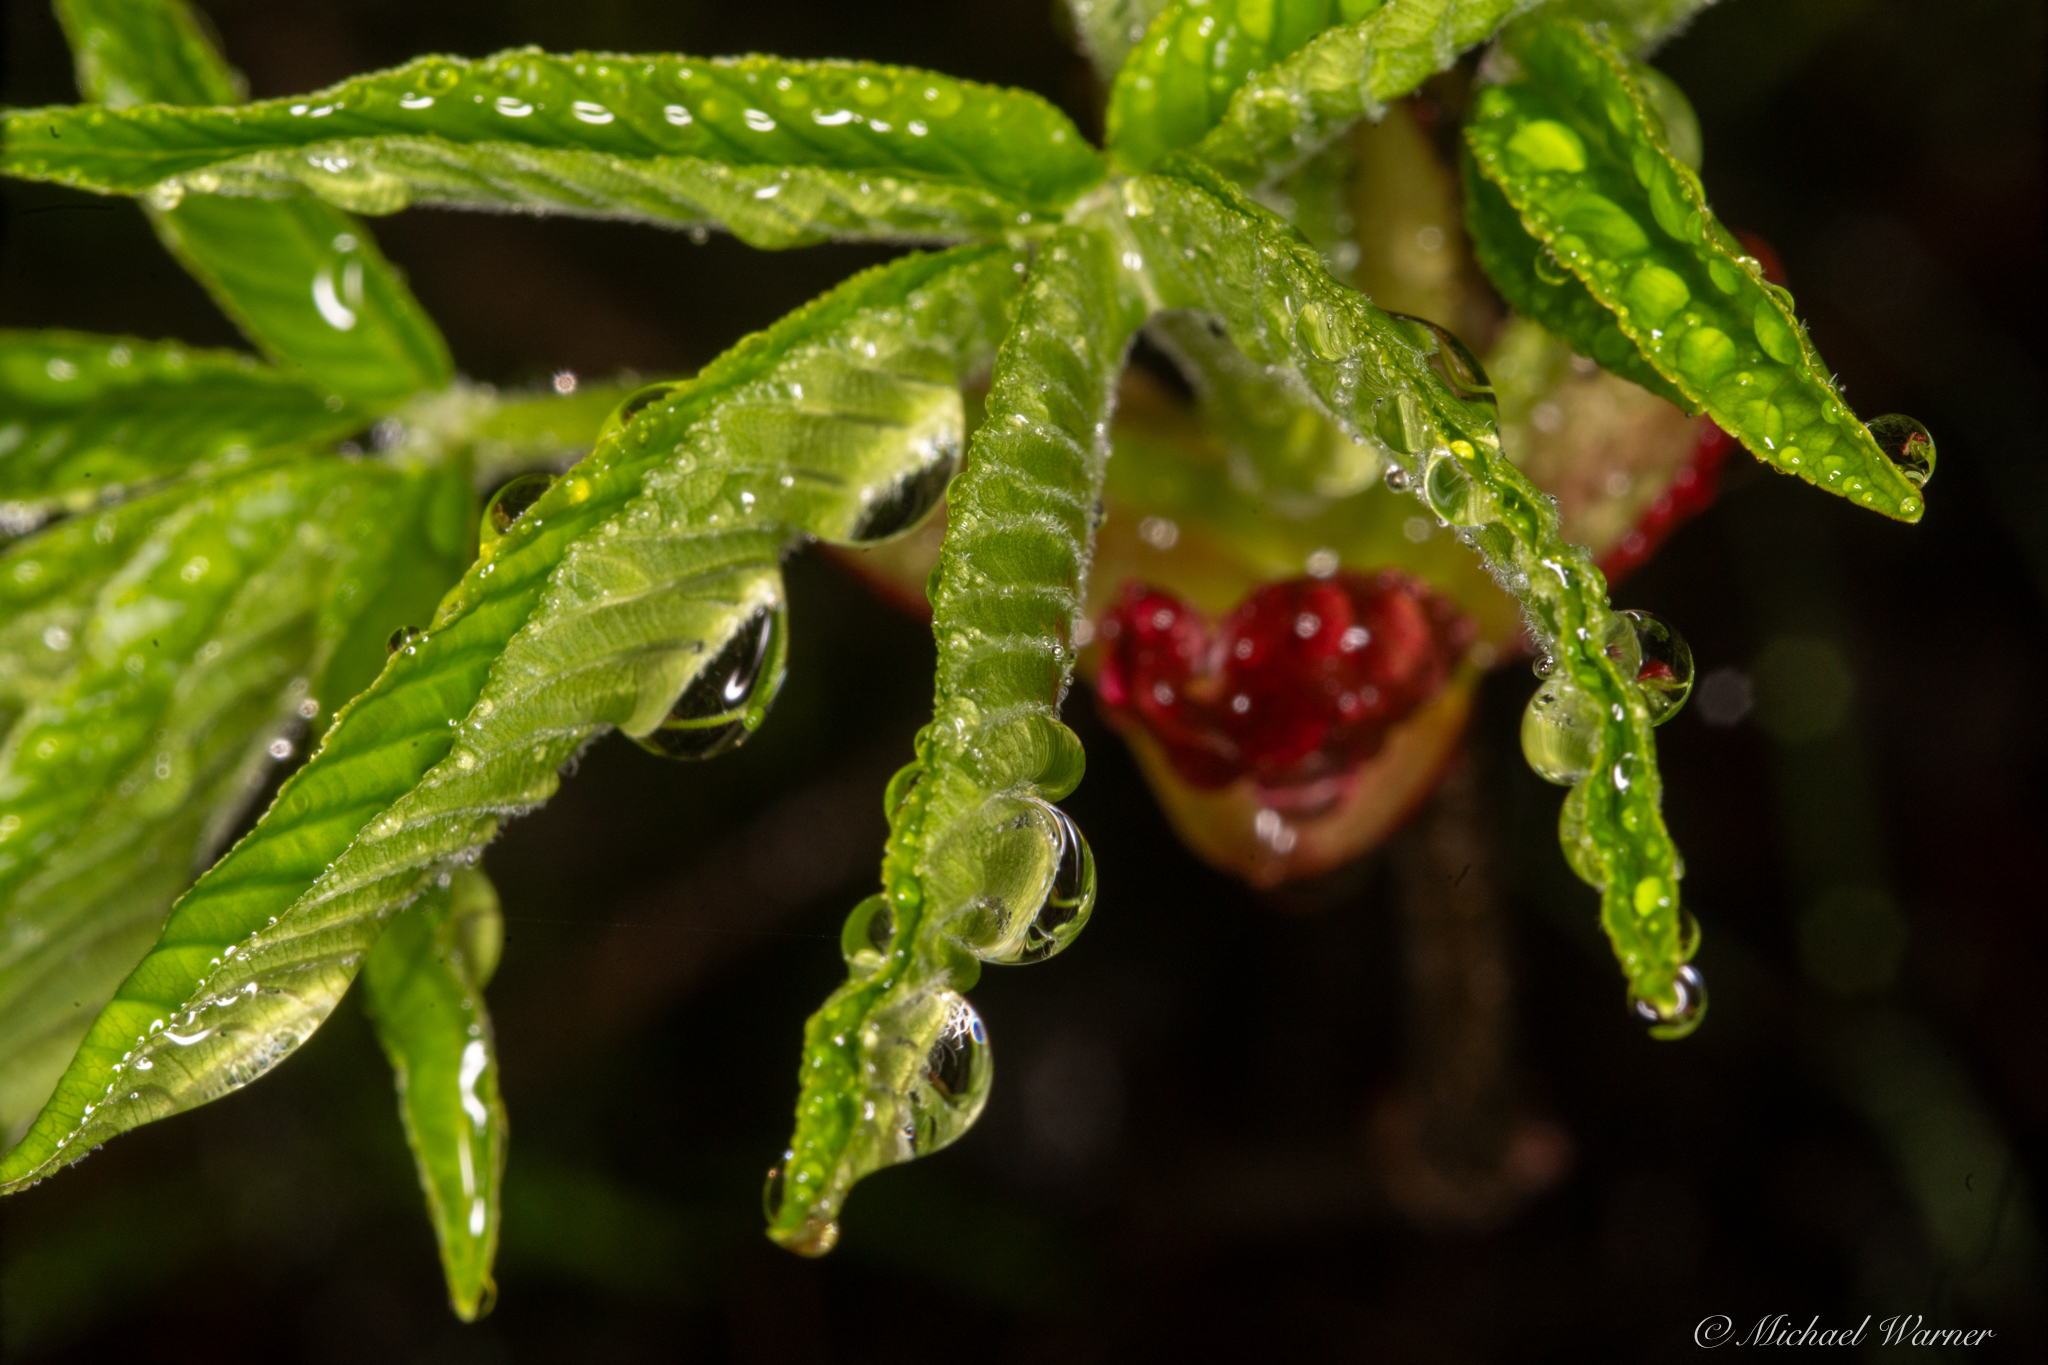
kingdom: Plantae
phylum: Tracheophyta
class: Magnoliopsida
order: Sapindales
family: Sapindaceae
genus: Aesculus
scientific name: Aesculus californica
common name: California buckeye
